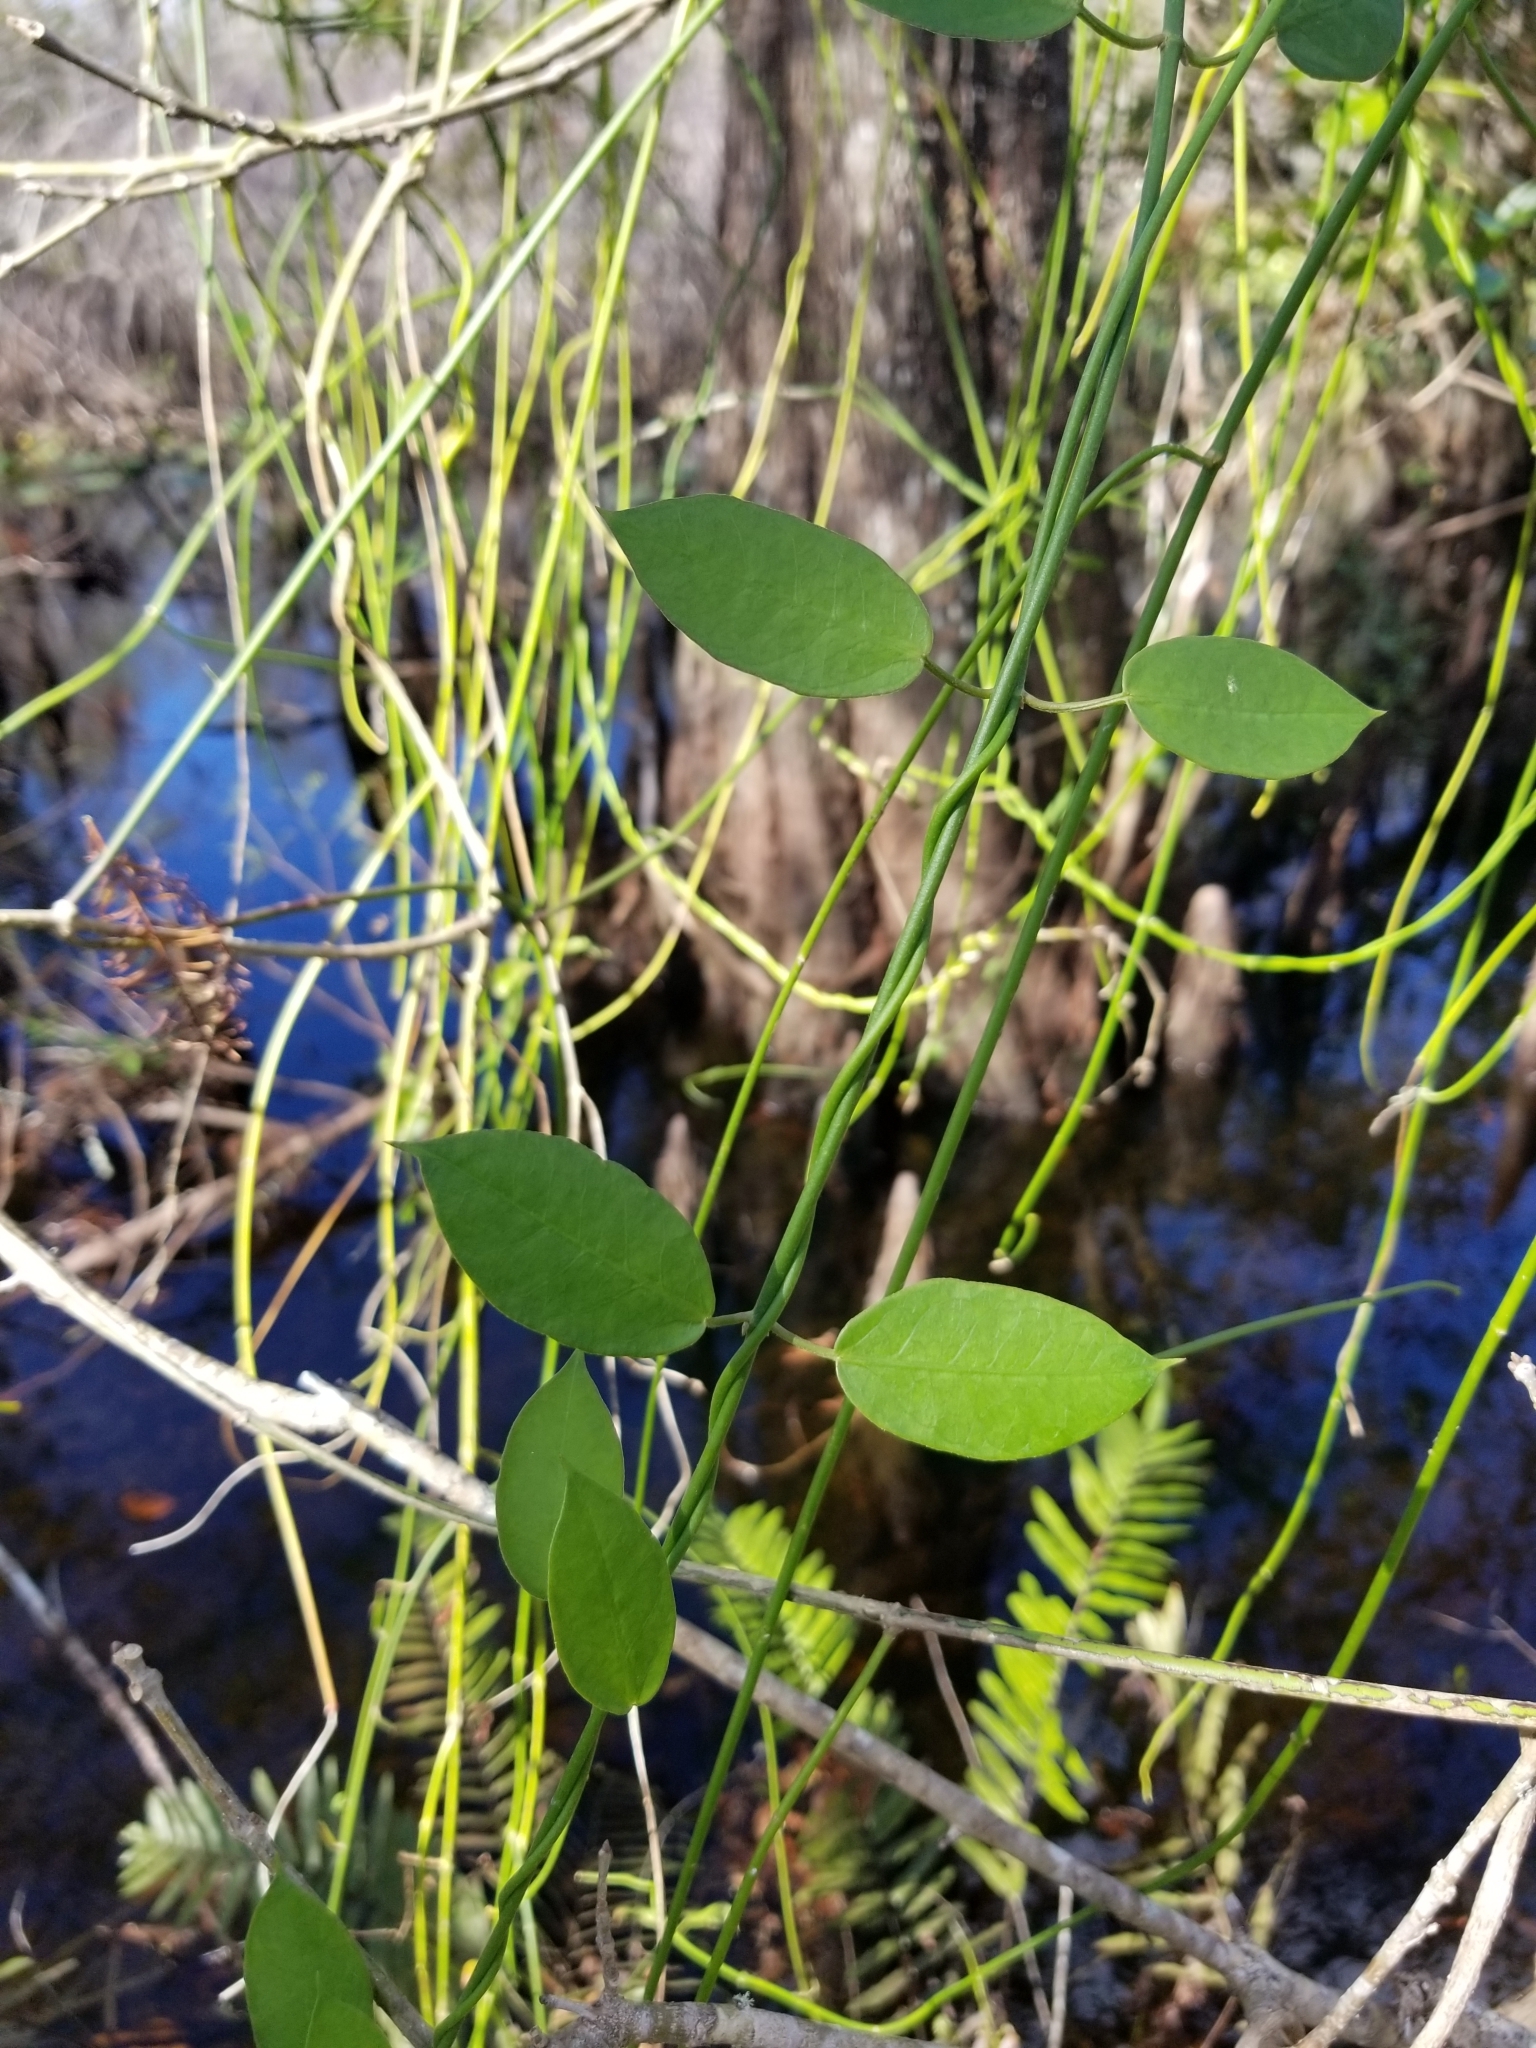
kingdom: Plantae
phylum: Tracheophyta
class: Magnoliopsida
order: Gentianales
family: Apocynaceae
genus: Funastrum
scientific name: Funastrum clausum
